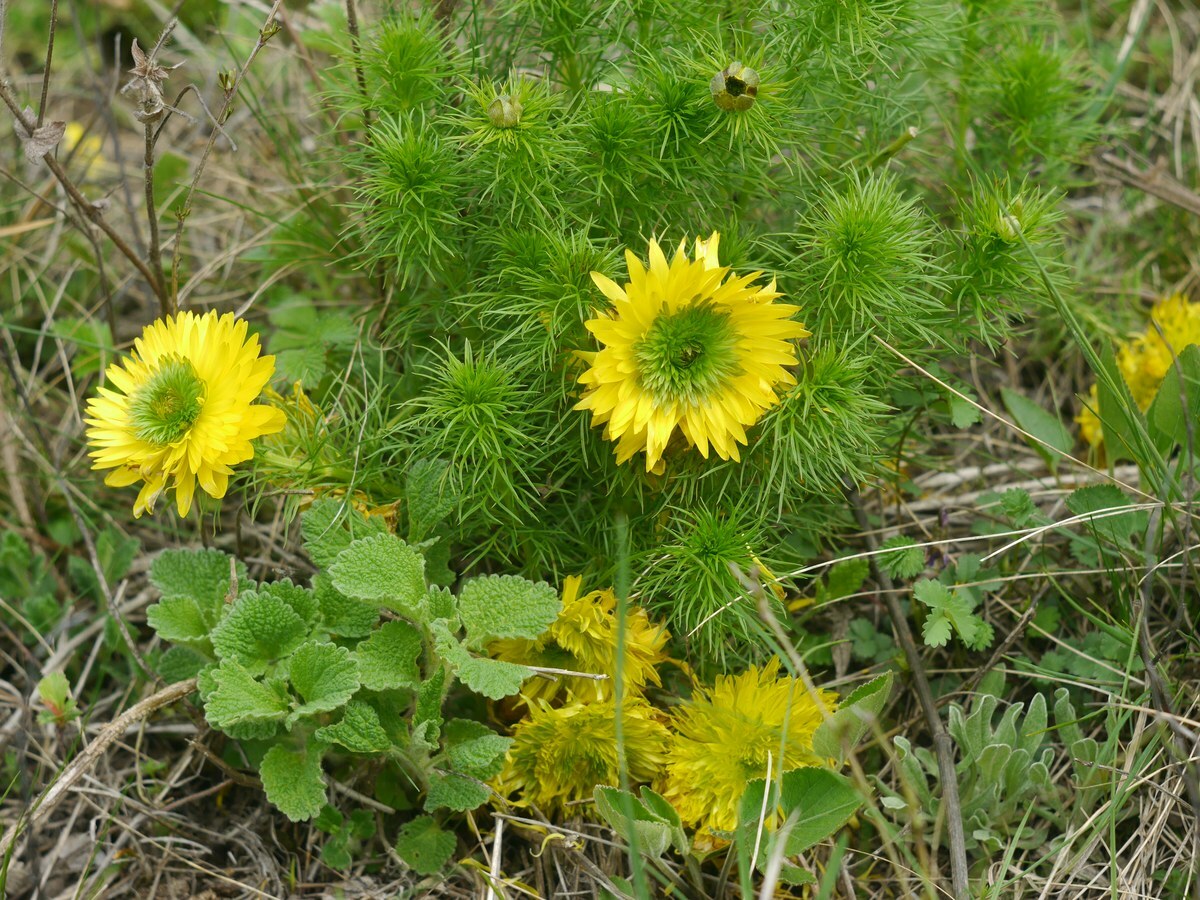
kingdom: Plantae
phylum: Tracheophyta
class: Magnoliopsida
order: Ranunculales
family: Ranunculaceae
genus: Adonis
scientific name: Adonis vernalis
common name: Yellow pheasants-eye
